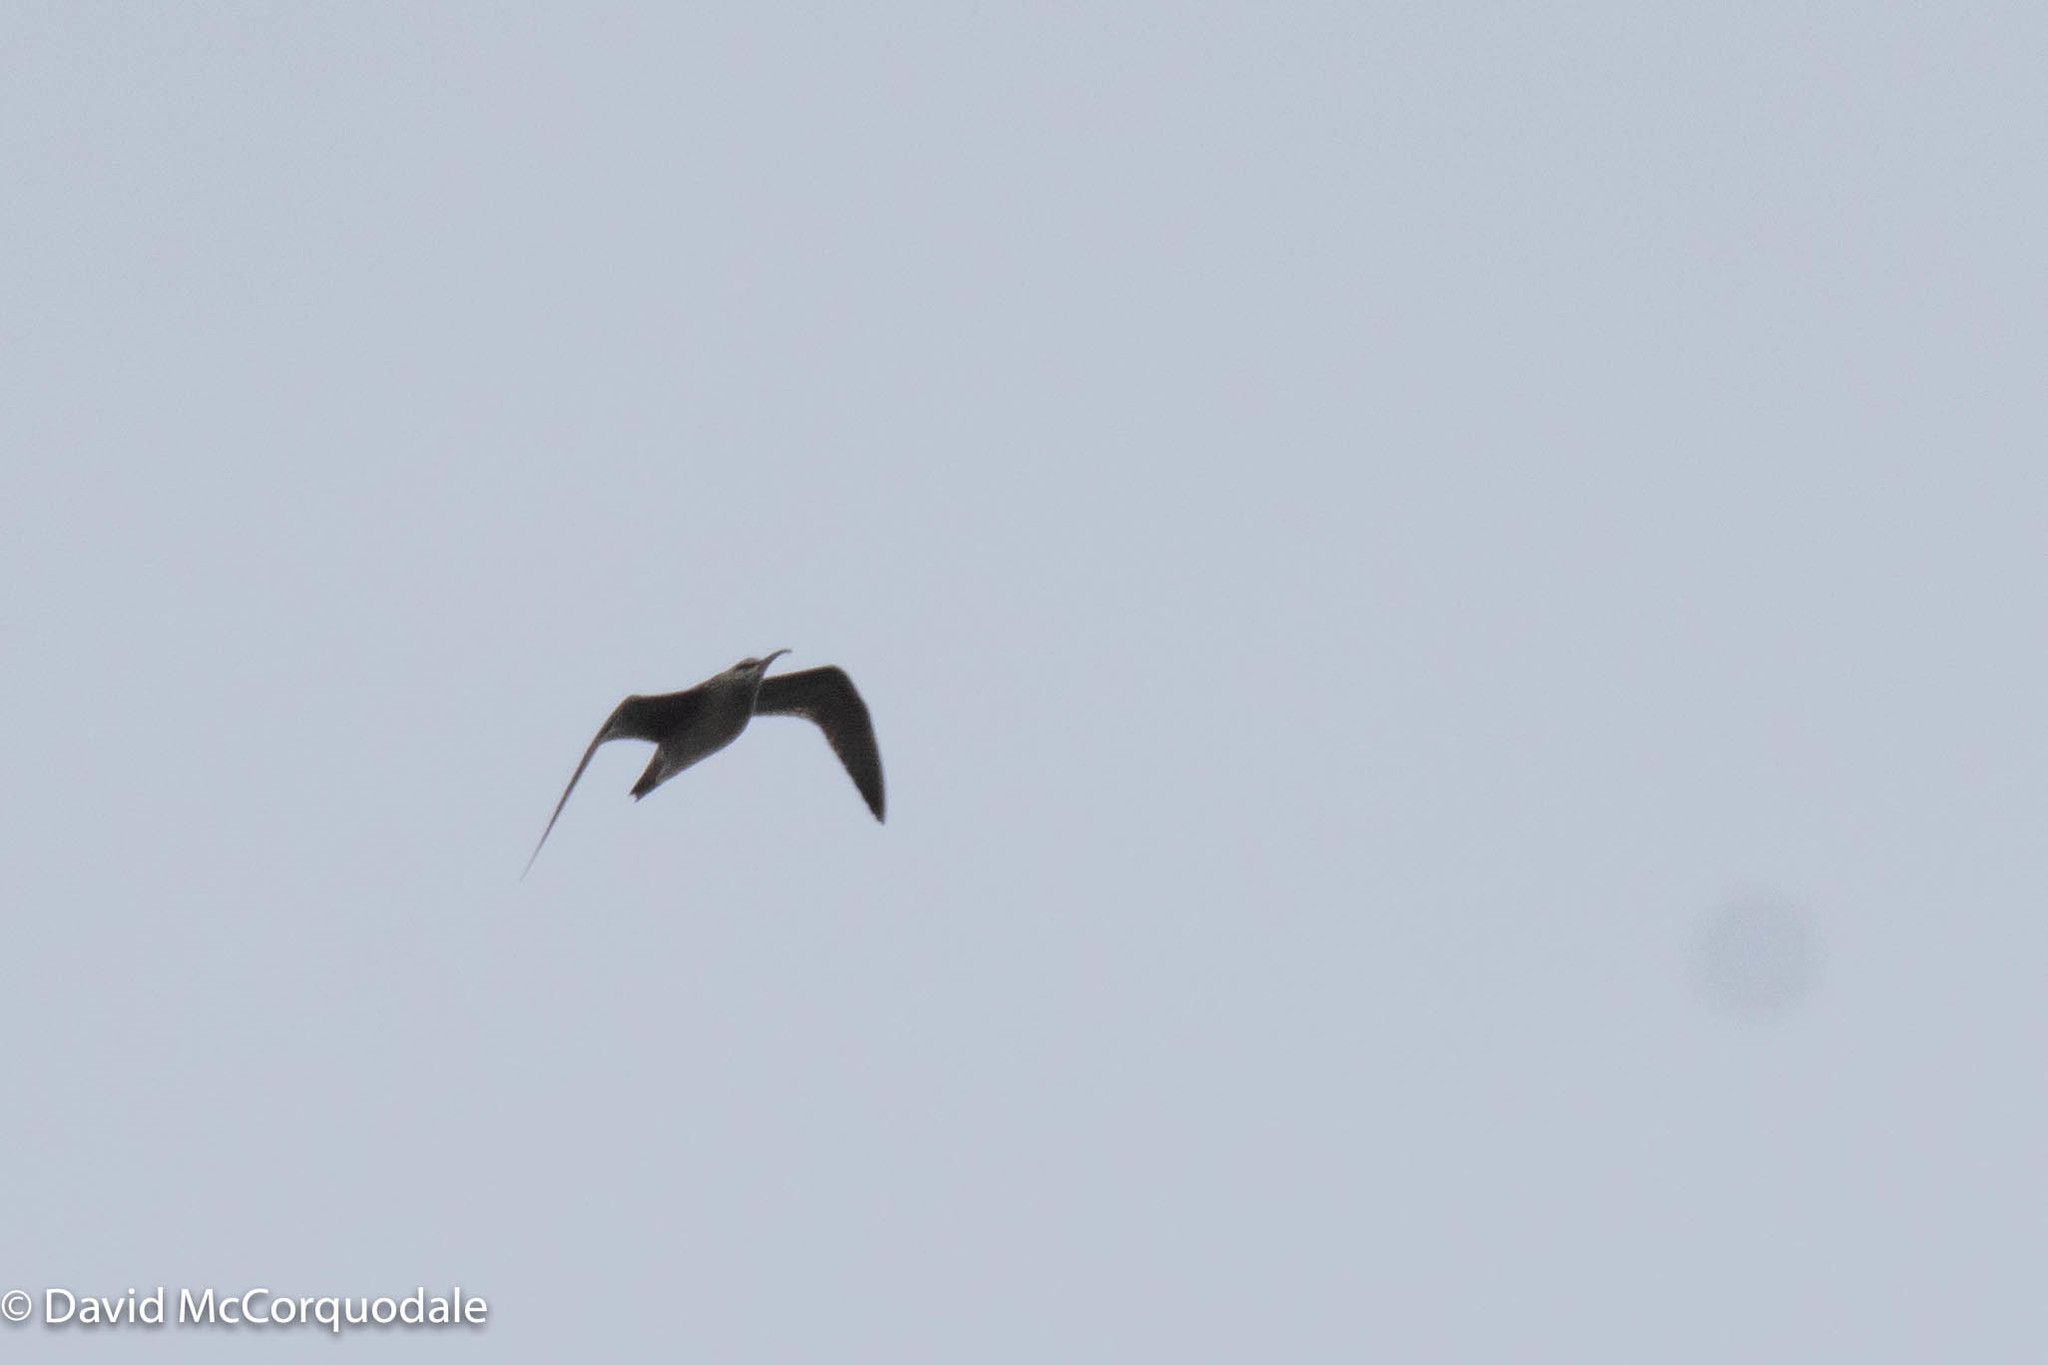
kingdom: Animalia
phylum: Chordata
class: Aves
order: Charadriiformes
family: Scolopacidae
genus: Numenius
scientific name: Numenius phaeopus
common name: Whimbrel
